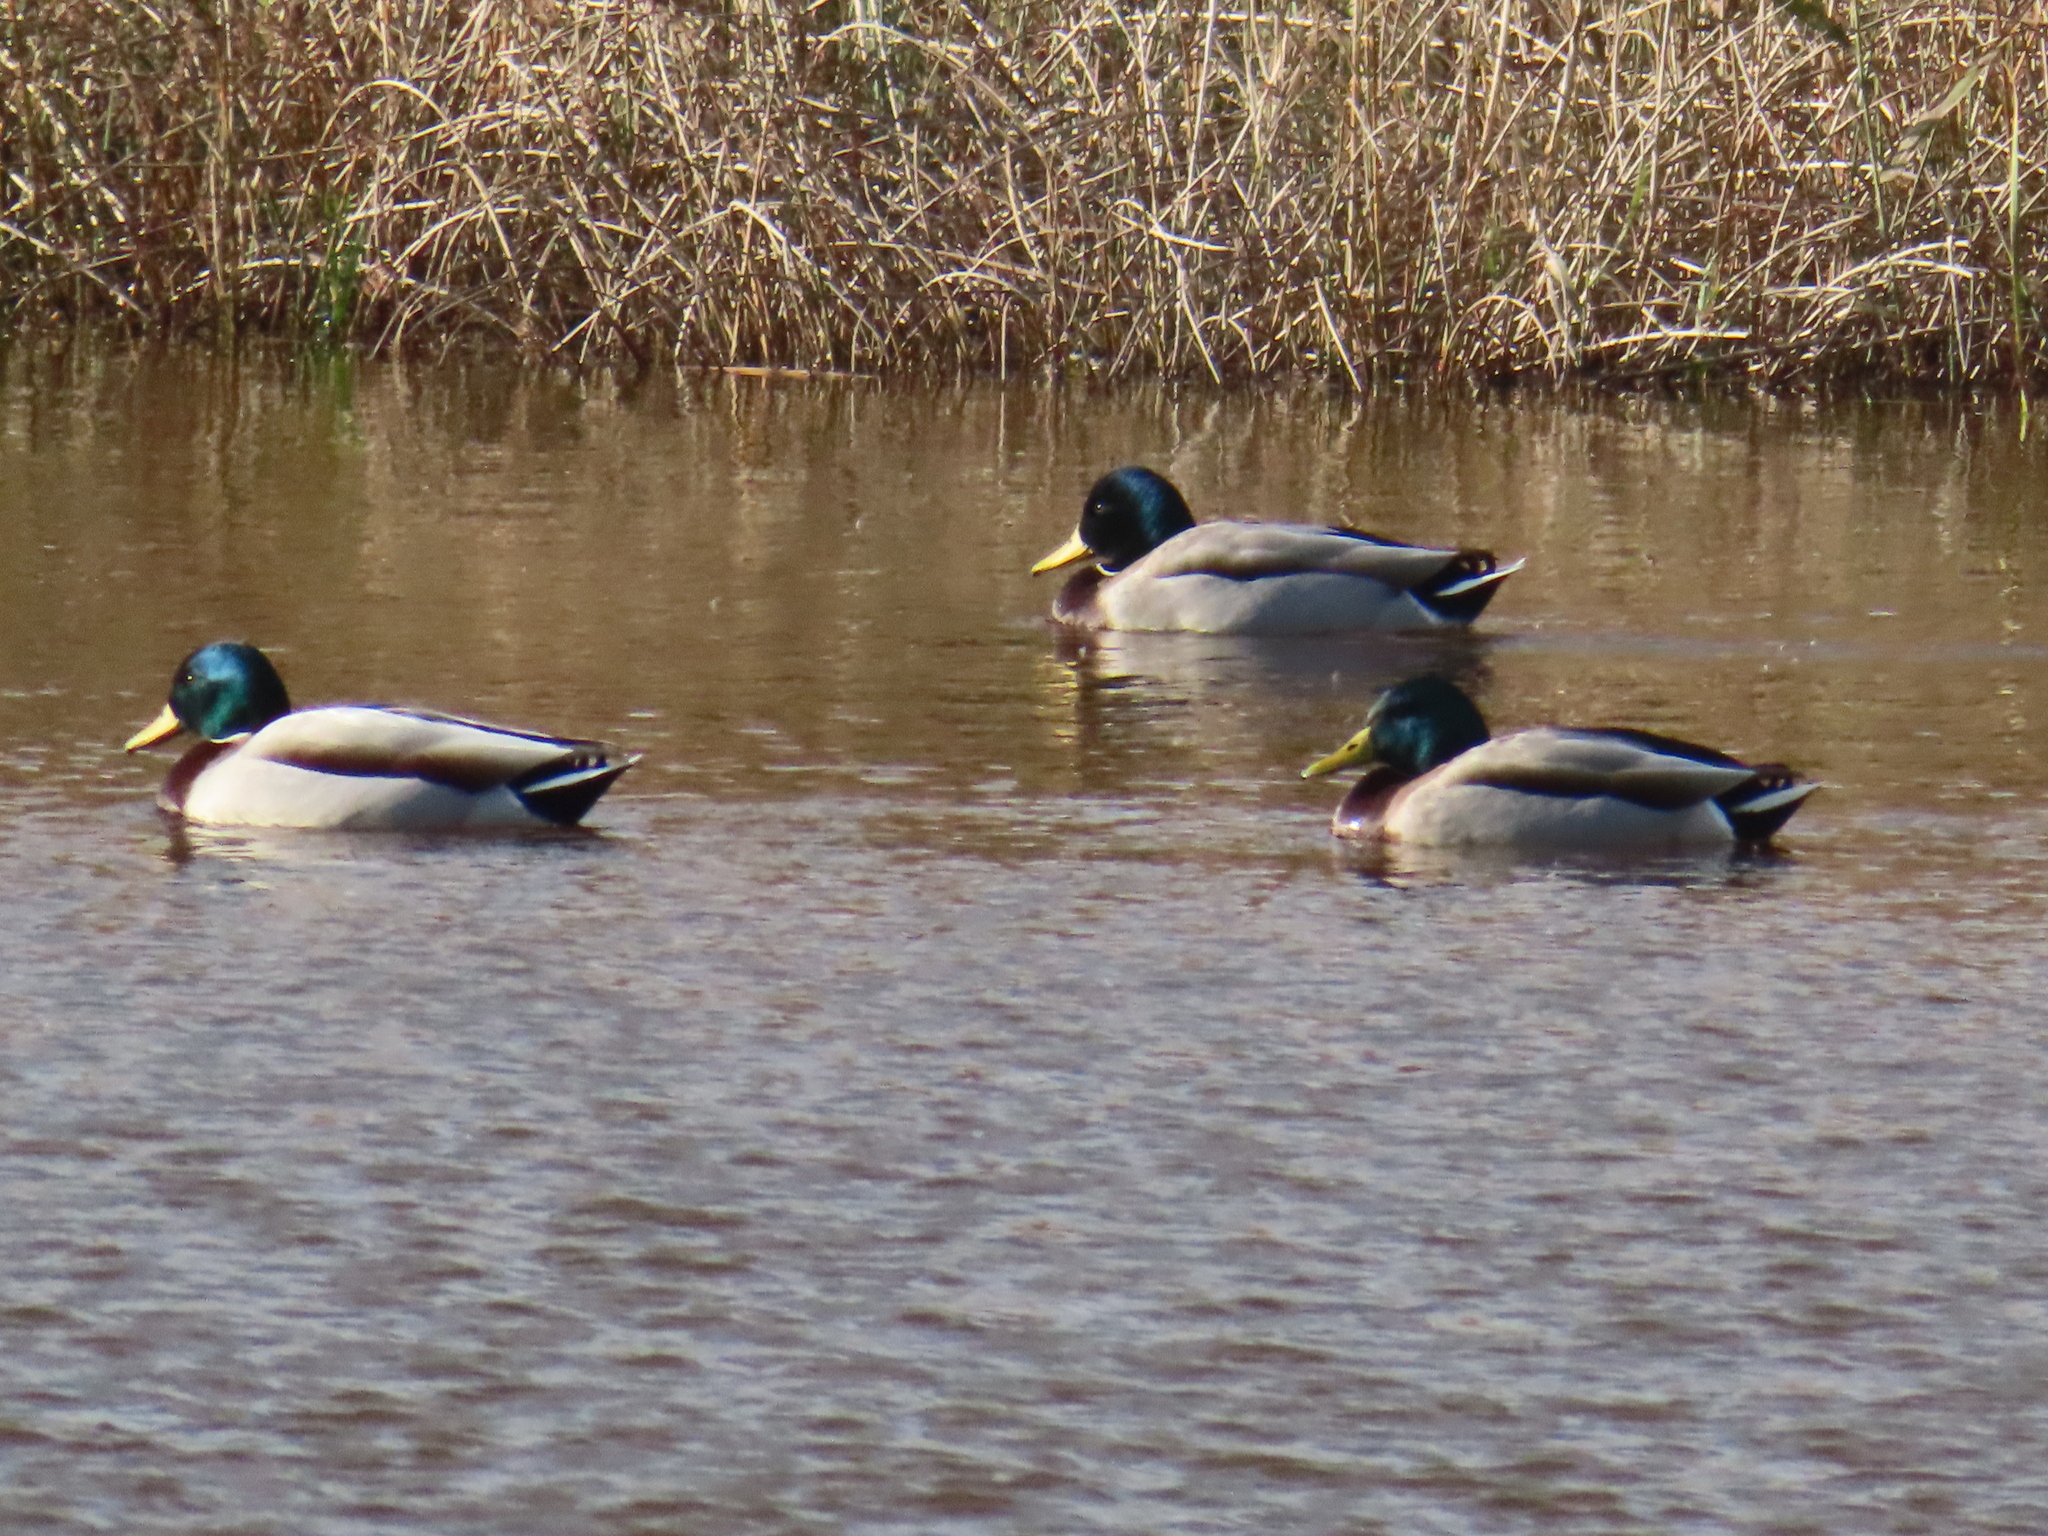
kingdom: Animalia
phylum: Chordata
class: Aves
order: Anseriformes
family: Anatidae
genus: Anas
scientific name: Anas platyrhynchos
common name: Mallard
